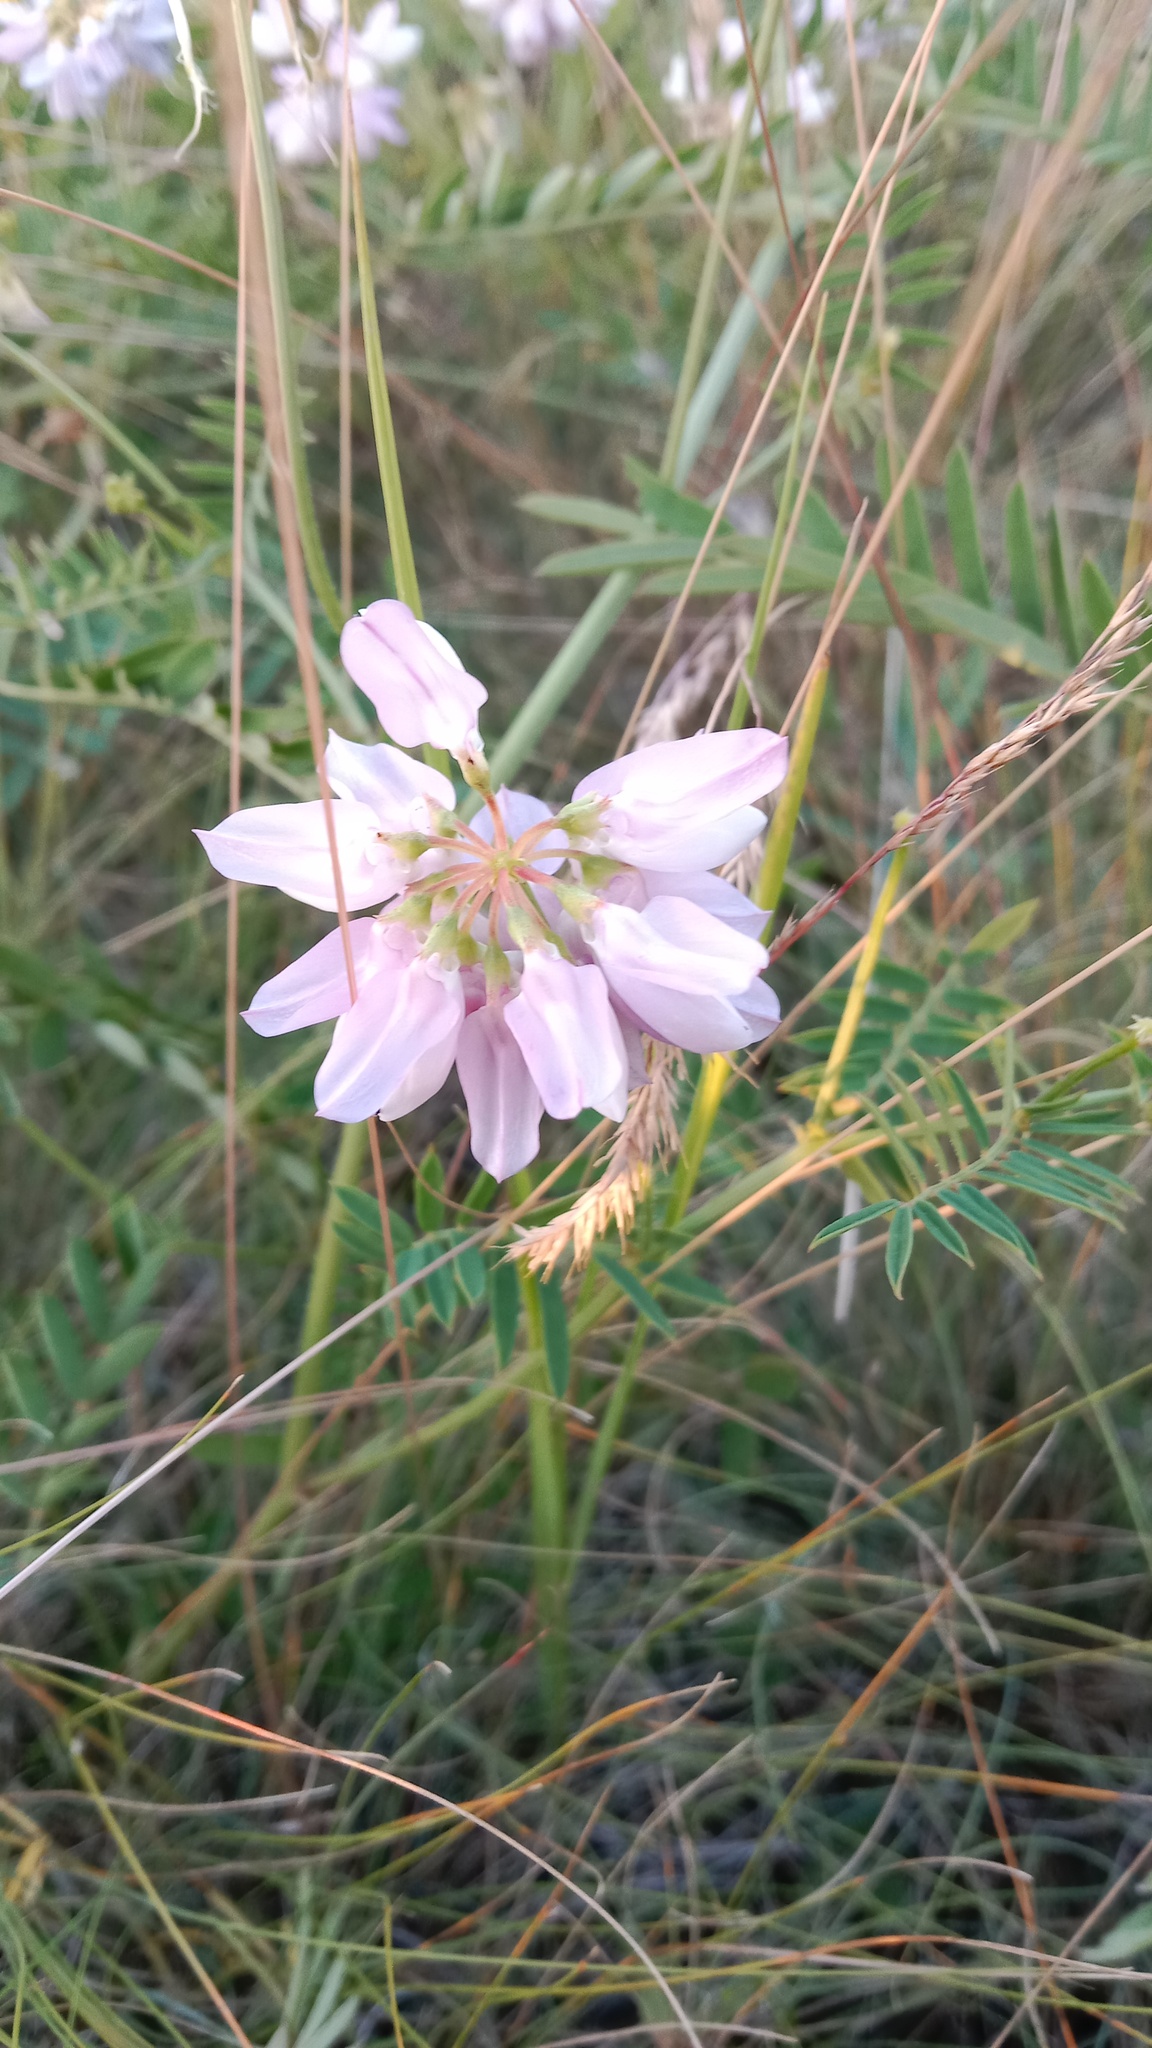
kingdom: Plantae
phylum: Tracheophyta
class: Magnoliopsida
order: Fabales
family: Fabaceae
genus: Coronilla
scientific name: Coronilla varia
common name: Crownvetch
